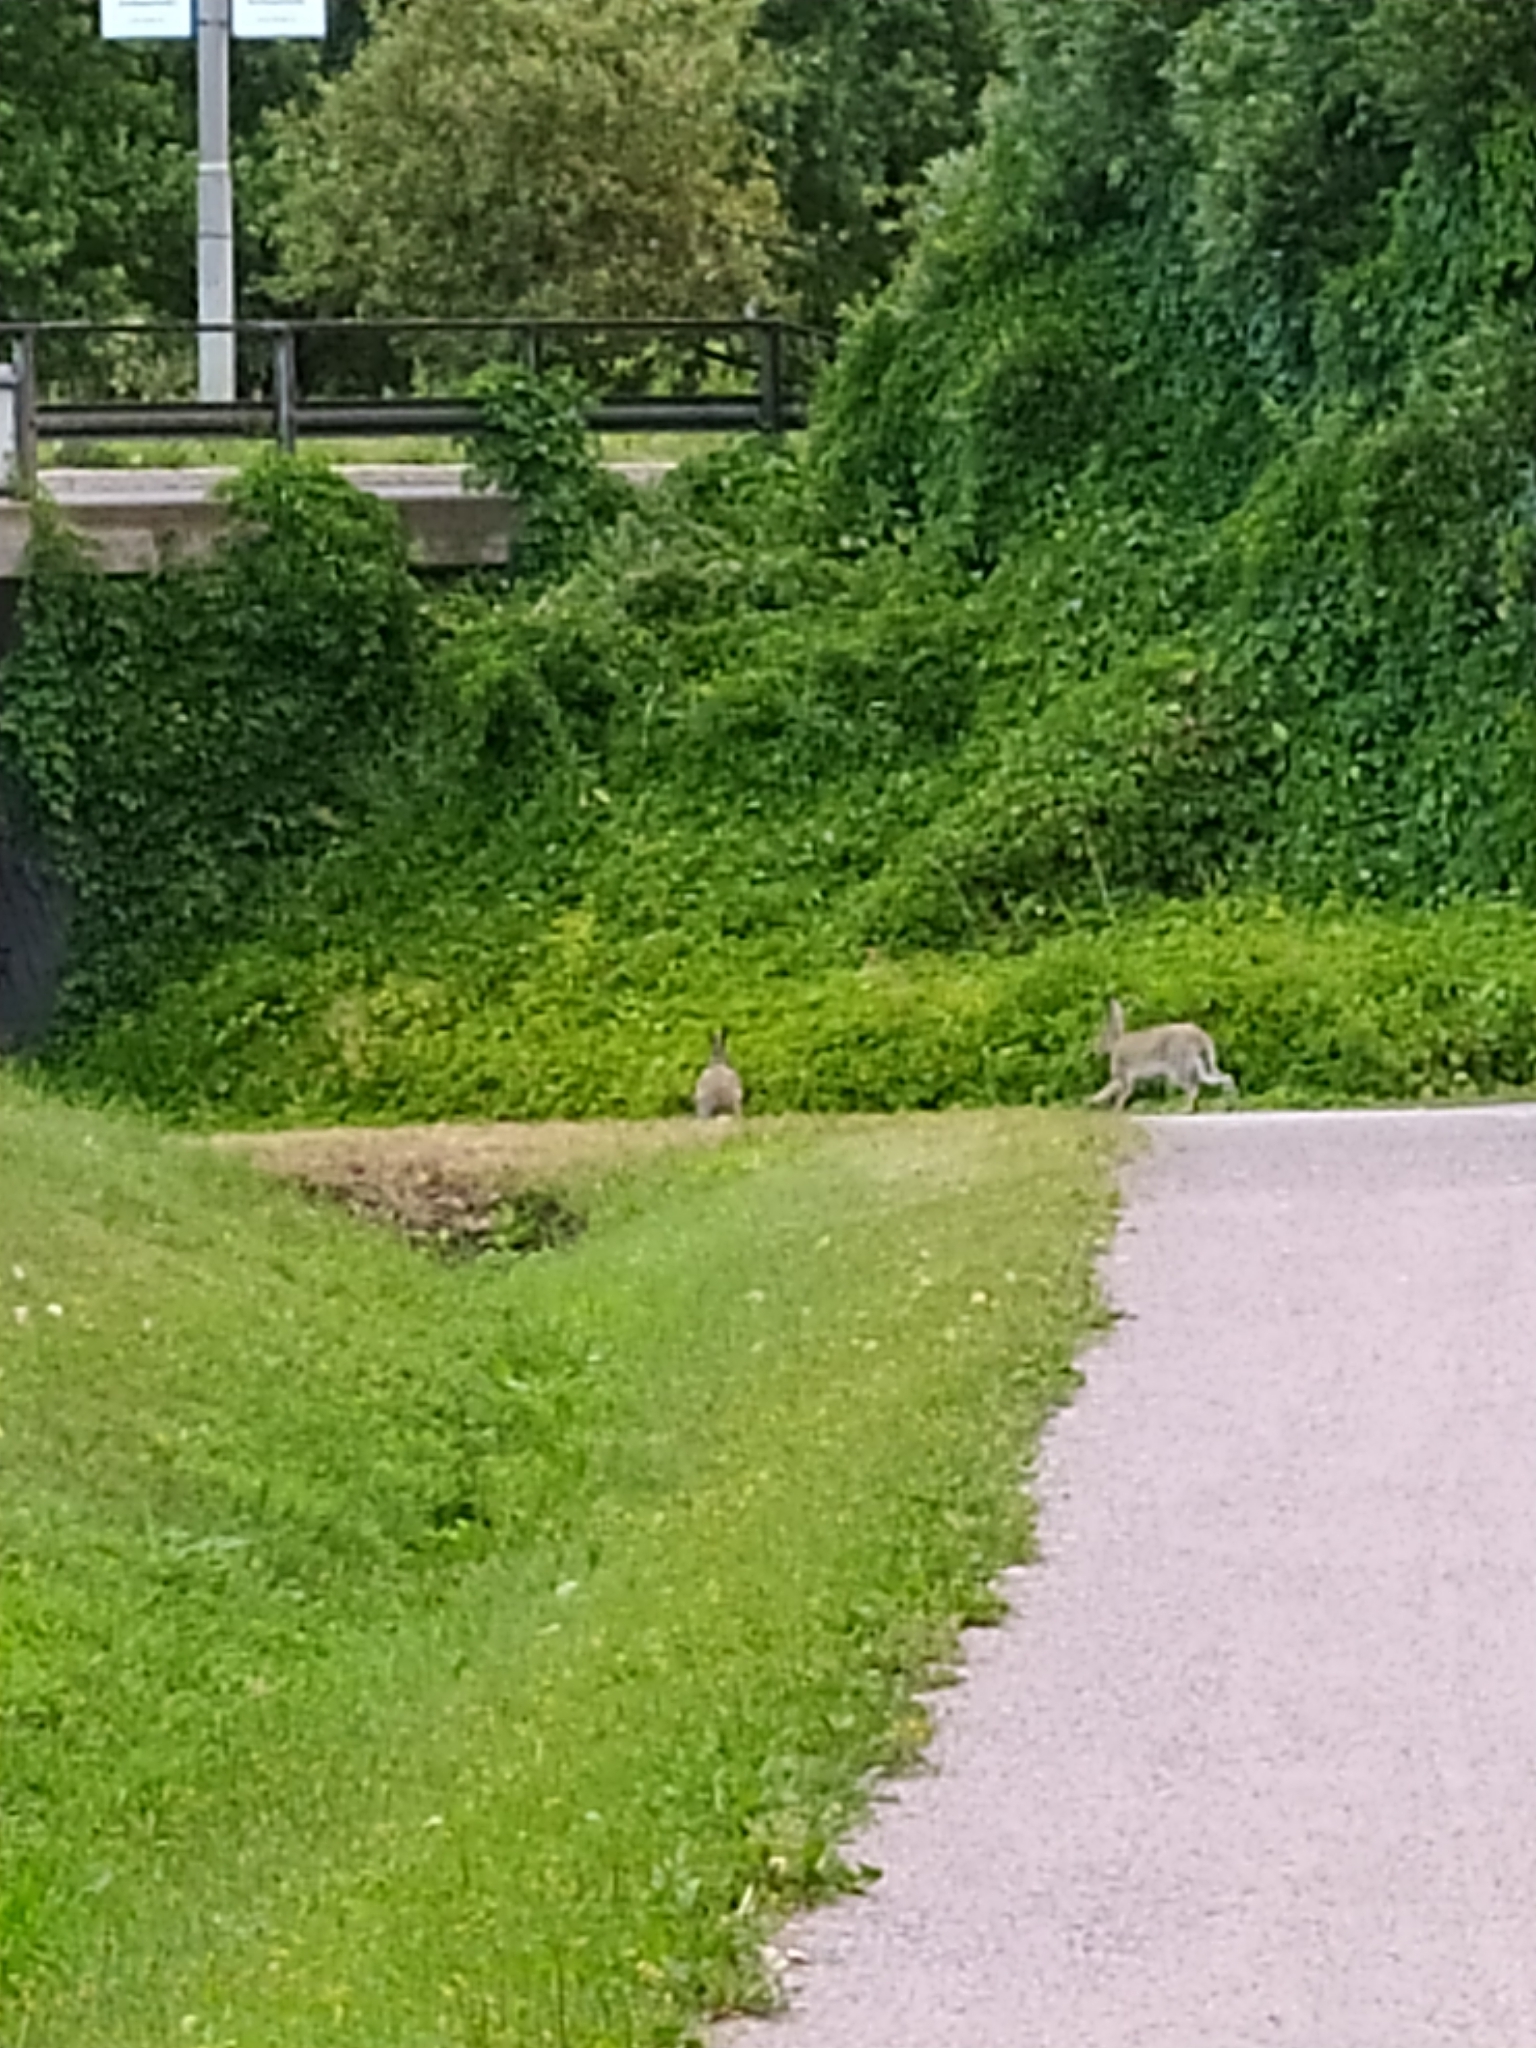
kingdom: Animalia
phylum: Chordata
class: Mammalia
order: Lagomorpha
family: Leporidae
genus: Lepus
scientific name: Lepus europaeus
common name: European hare
